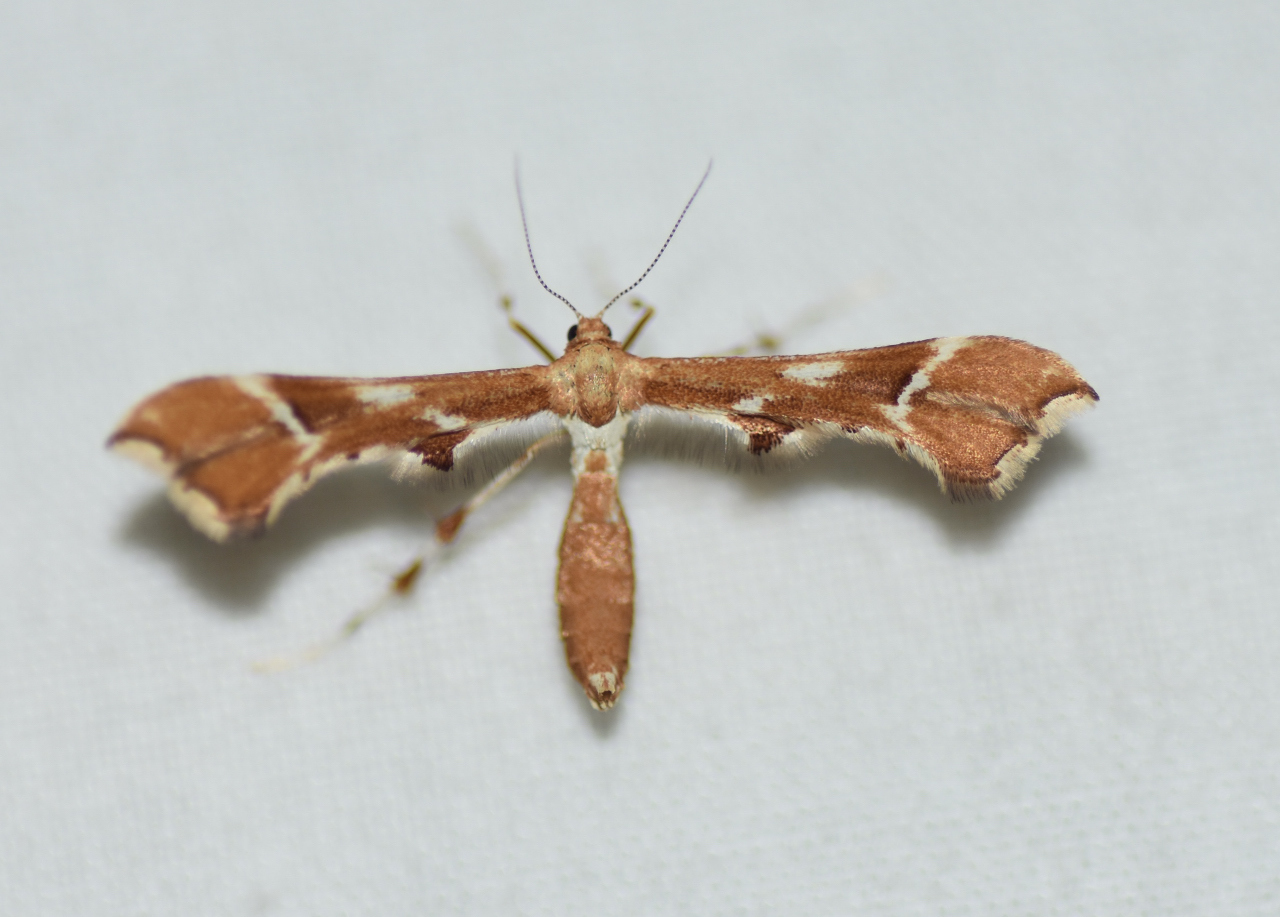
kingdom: Animalia
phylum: Arthropoda
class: Insecta
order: Lepidoptera
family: Pterophoridae
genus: Cnaemidophorus
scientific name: Cnaemidophorus rhododactyla
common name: Rose plume
